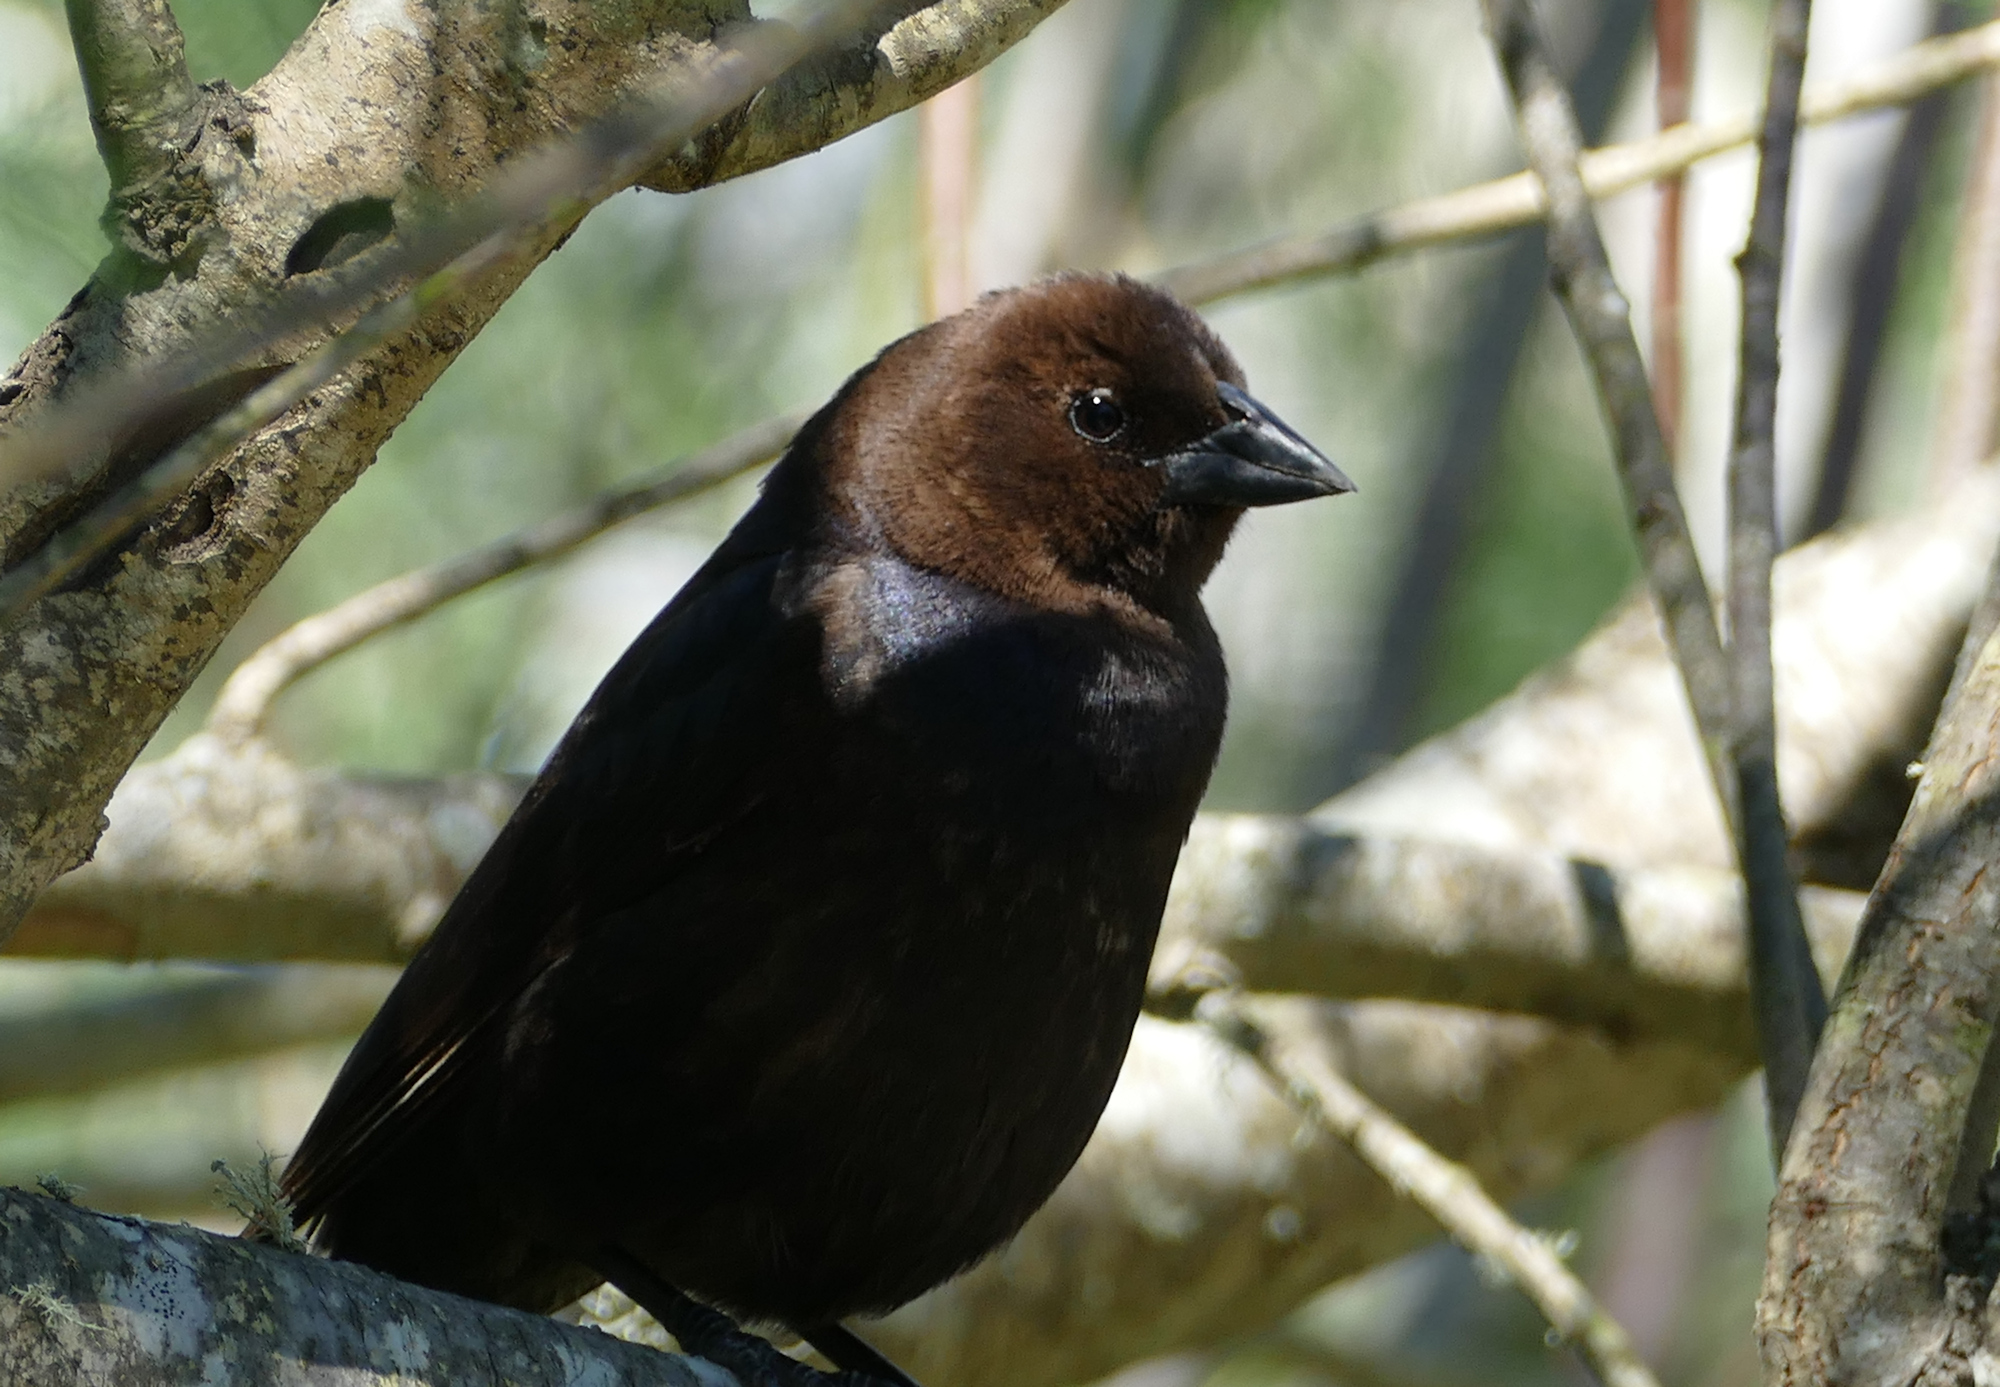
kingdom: Animalia
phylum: Chordata
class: Aves
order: Passeriformes
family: Icteridae
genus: Molothrus
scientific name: Molothrus ater
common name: Brown-headed cowbird
